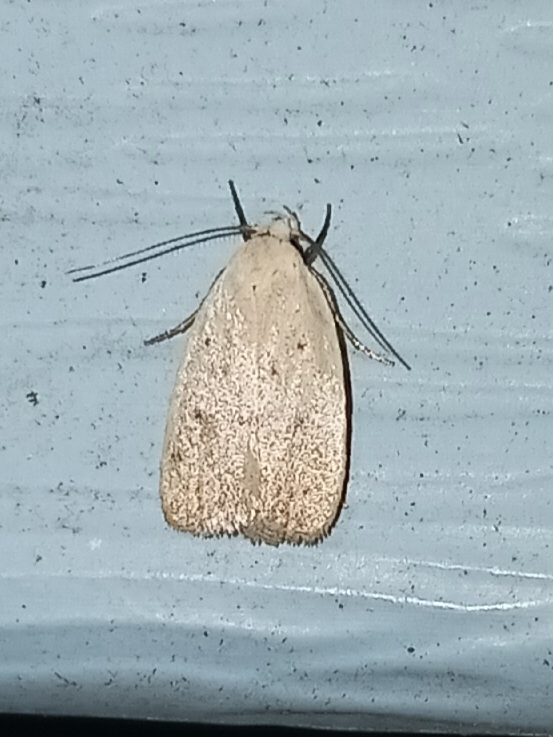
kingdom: Animalia
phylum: Arthropoda
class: Insecta
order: Lepidoptera
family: Oecophoridae
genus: Inga
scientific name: Inga cretacea
